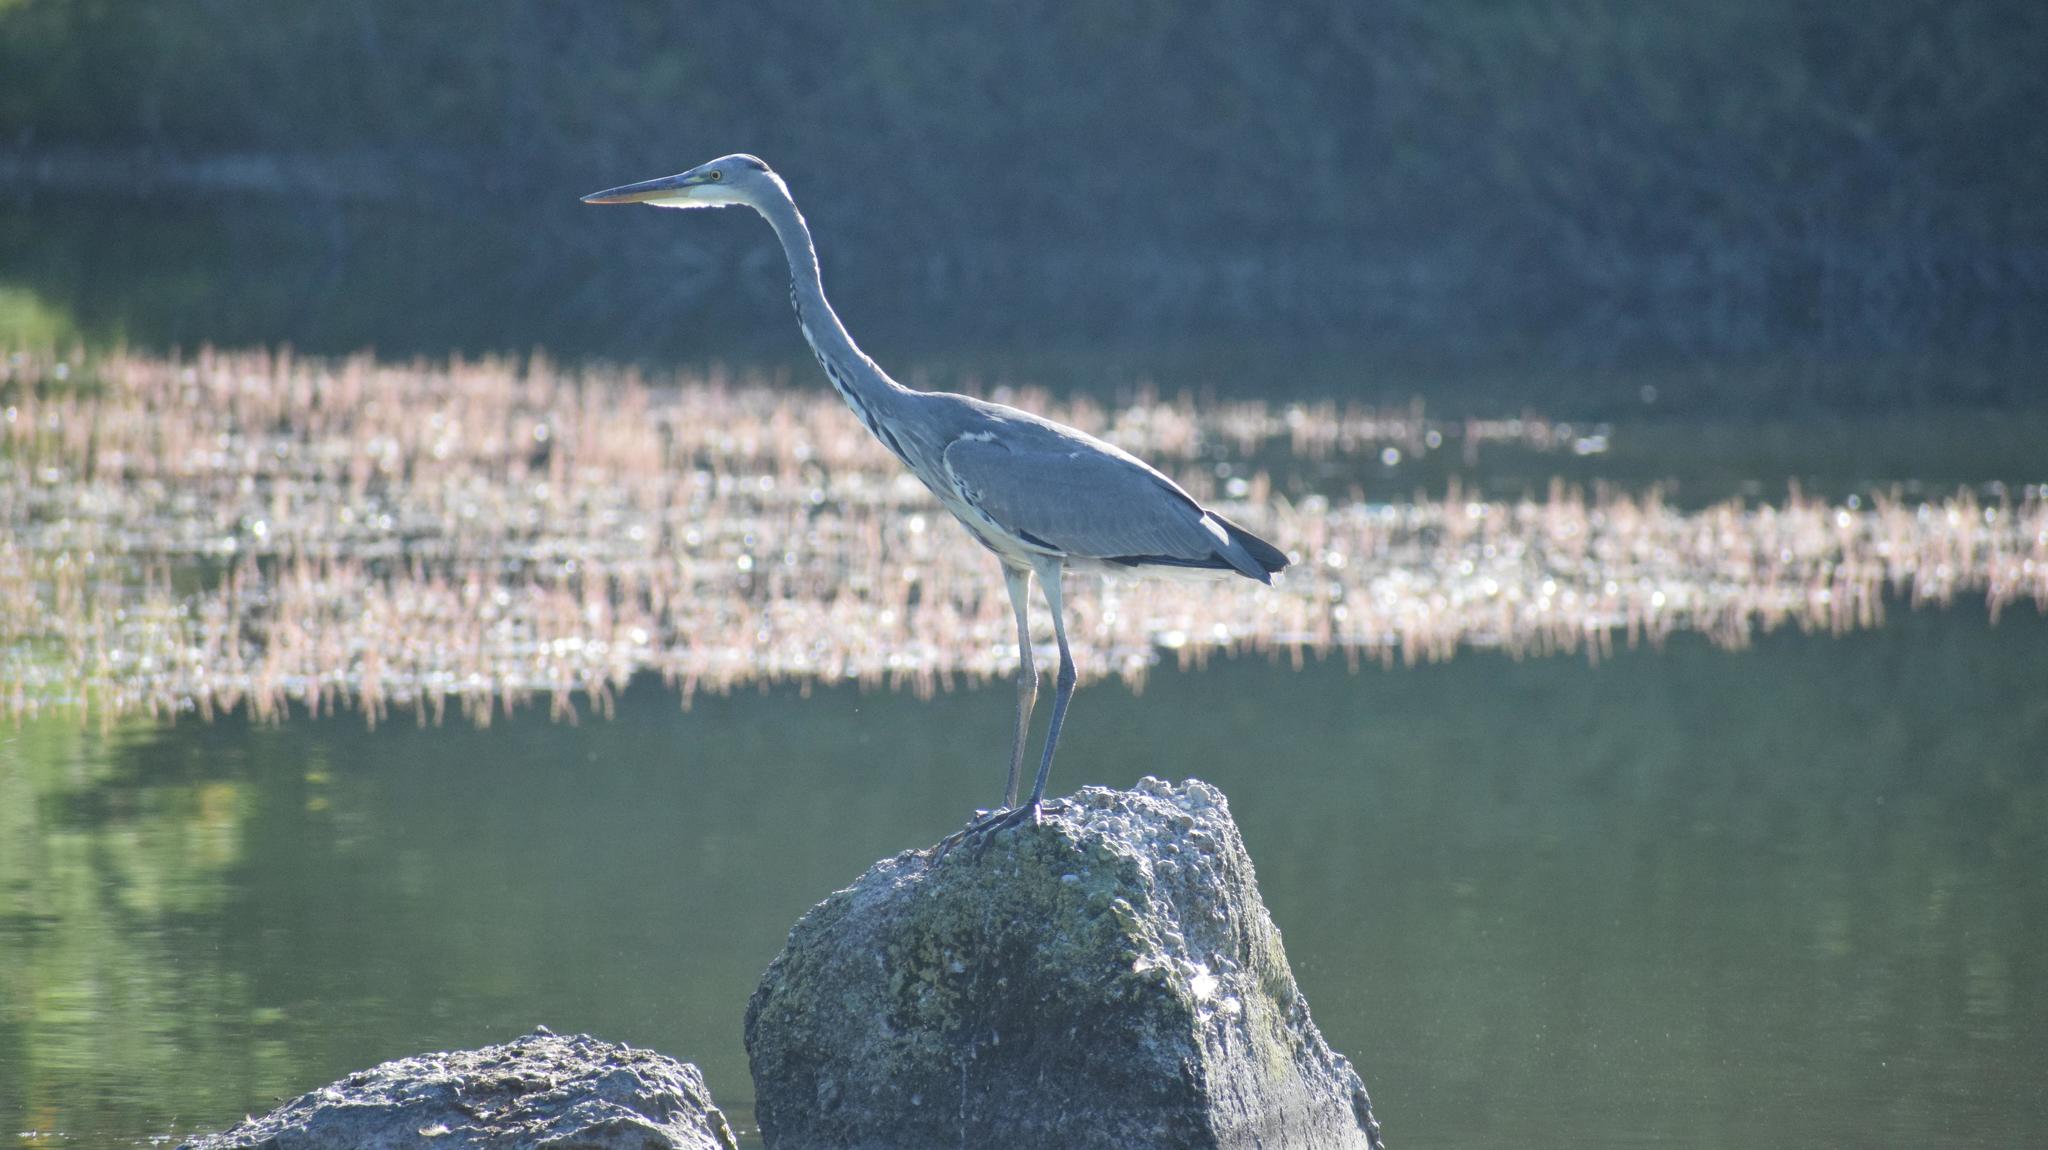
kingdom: Animalia
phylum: Chordata
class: Aves
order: Pelecaniformes
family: Ardeidae
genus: Ardea
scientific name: Ardea cinerea
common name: Grey heron
